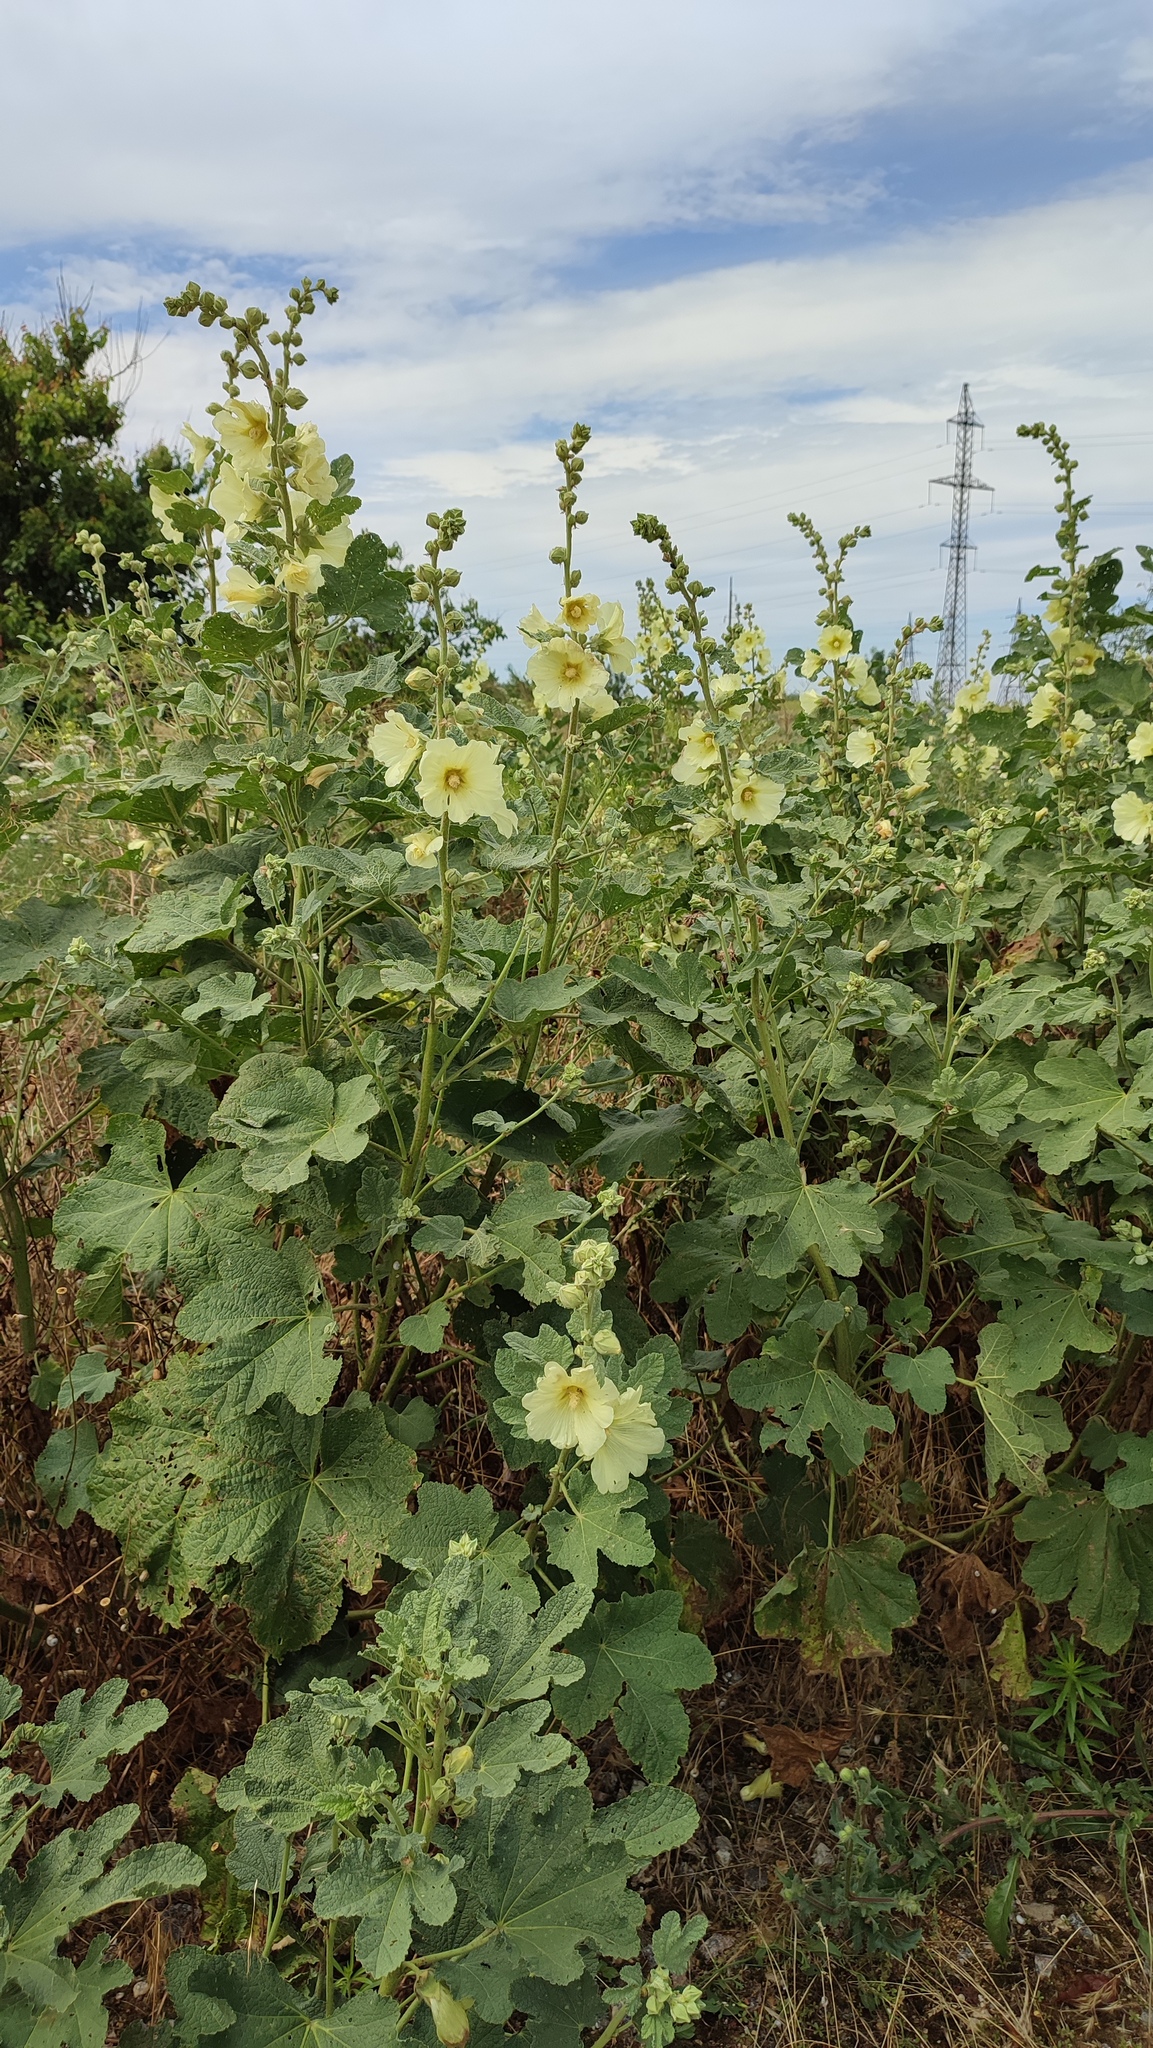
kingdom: Plantae
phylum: Tracheophyta
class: Magnoliopsida
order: Malvales
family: Malvaceae
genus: Alcea
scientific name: Alcea rugosa
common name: Russian hollyhock
